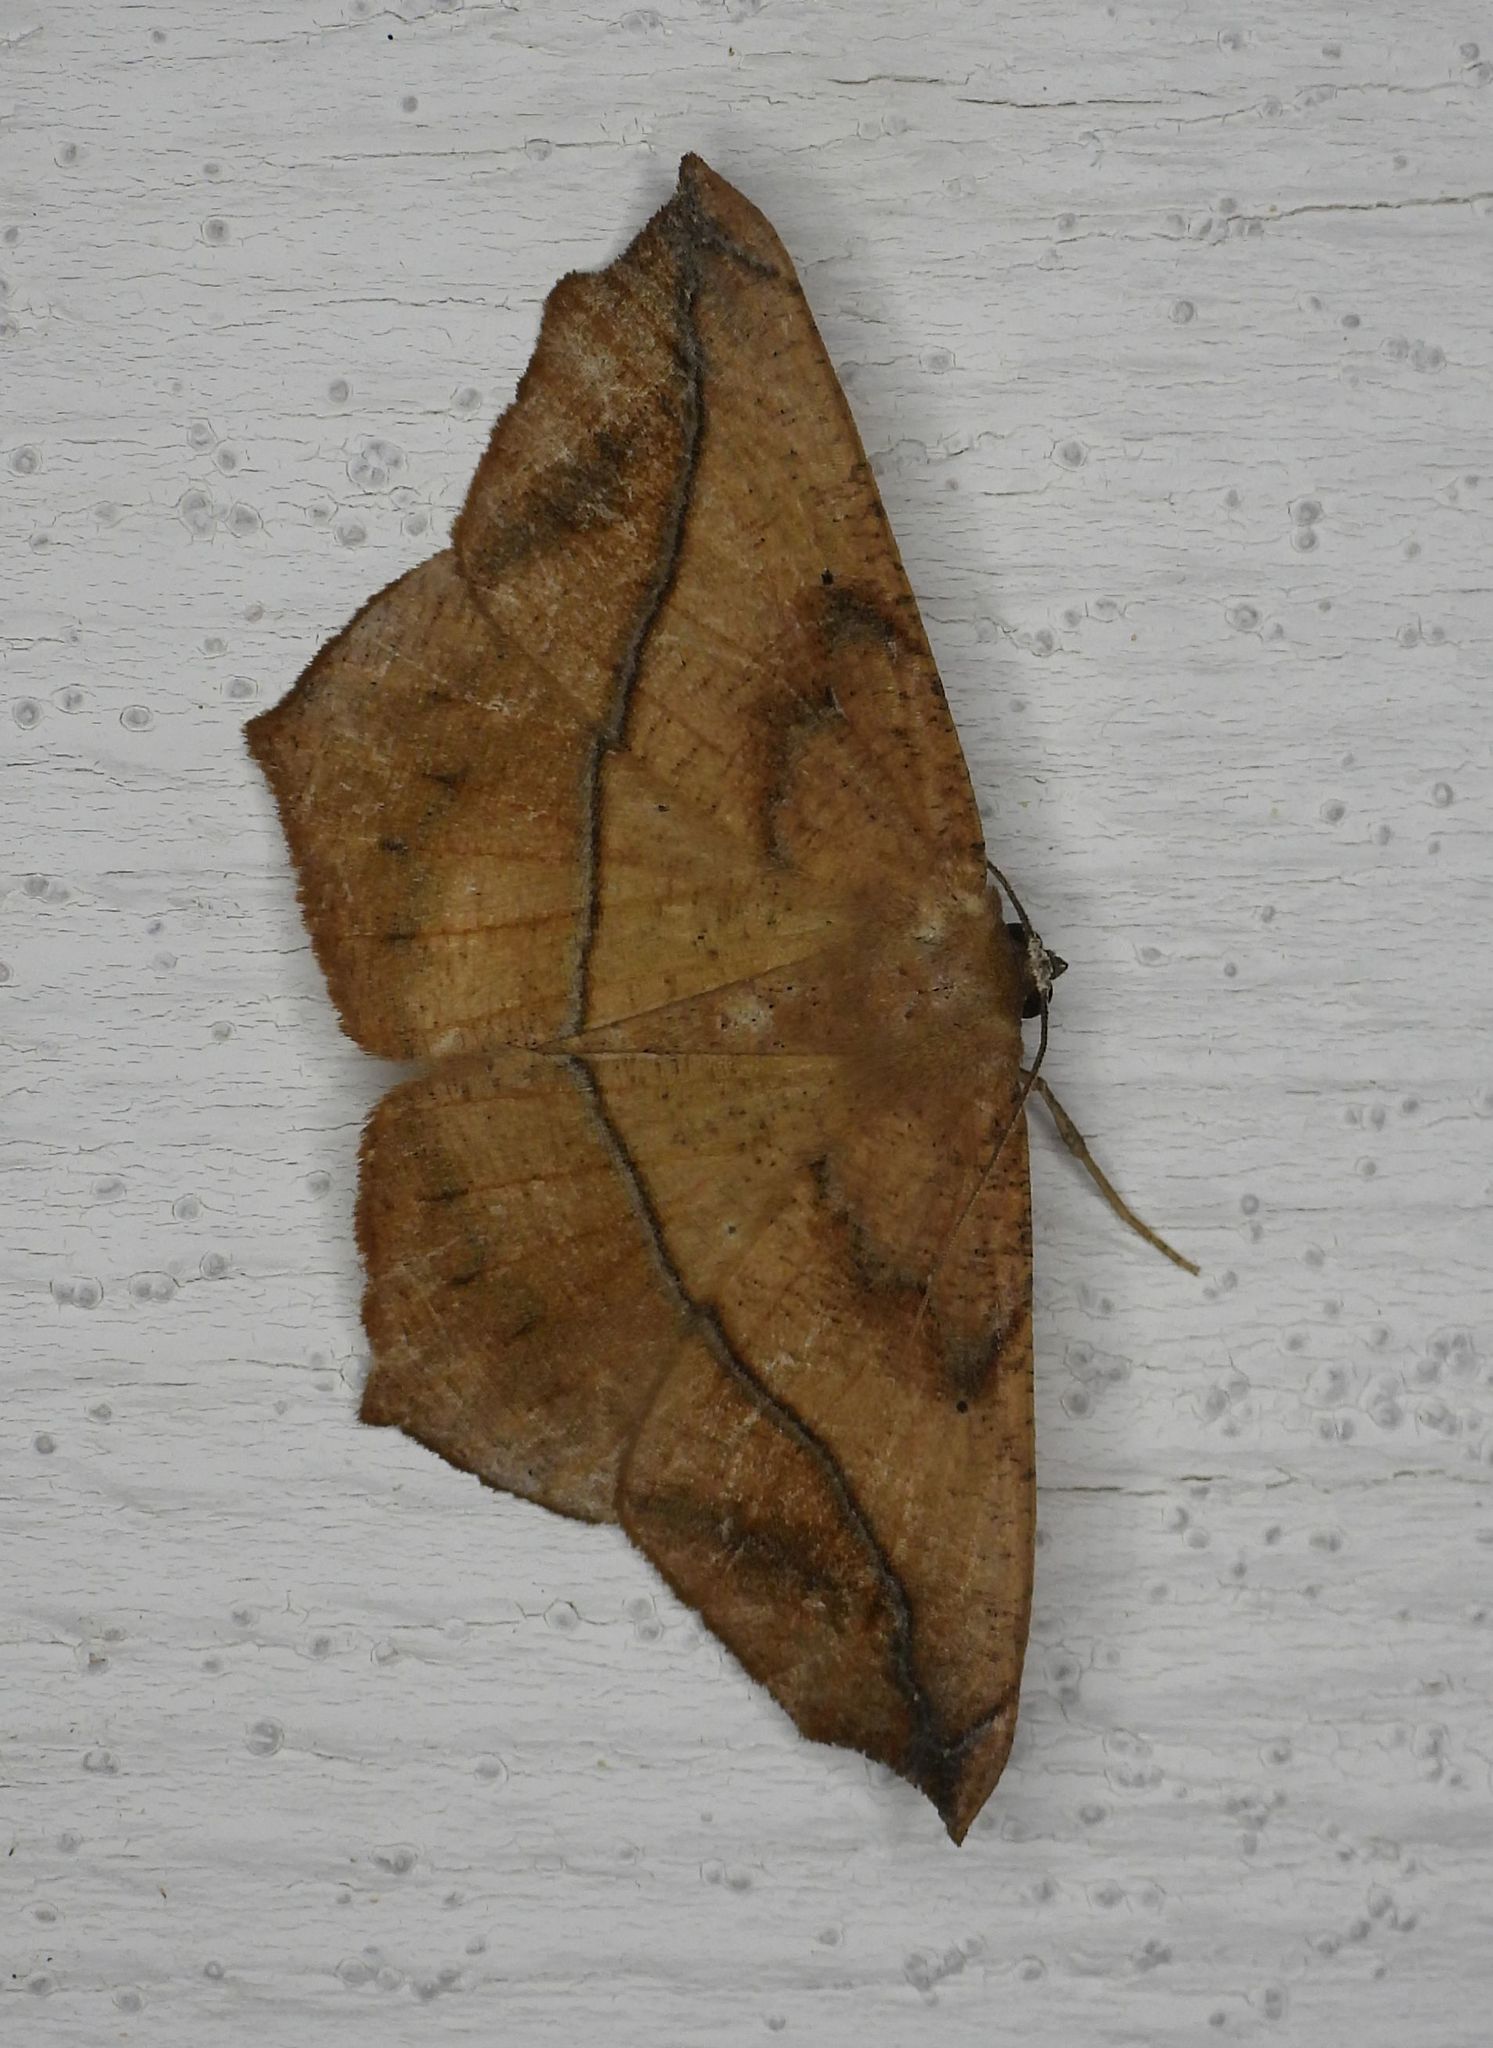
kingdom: Animalia
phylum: Arthropoda
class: Insecta
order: Lepidoptera
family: Geometridae
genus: Prochoerodes
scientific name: Prochoerodes lineola
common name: Large maple spanworm
